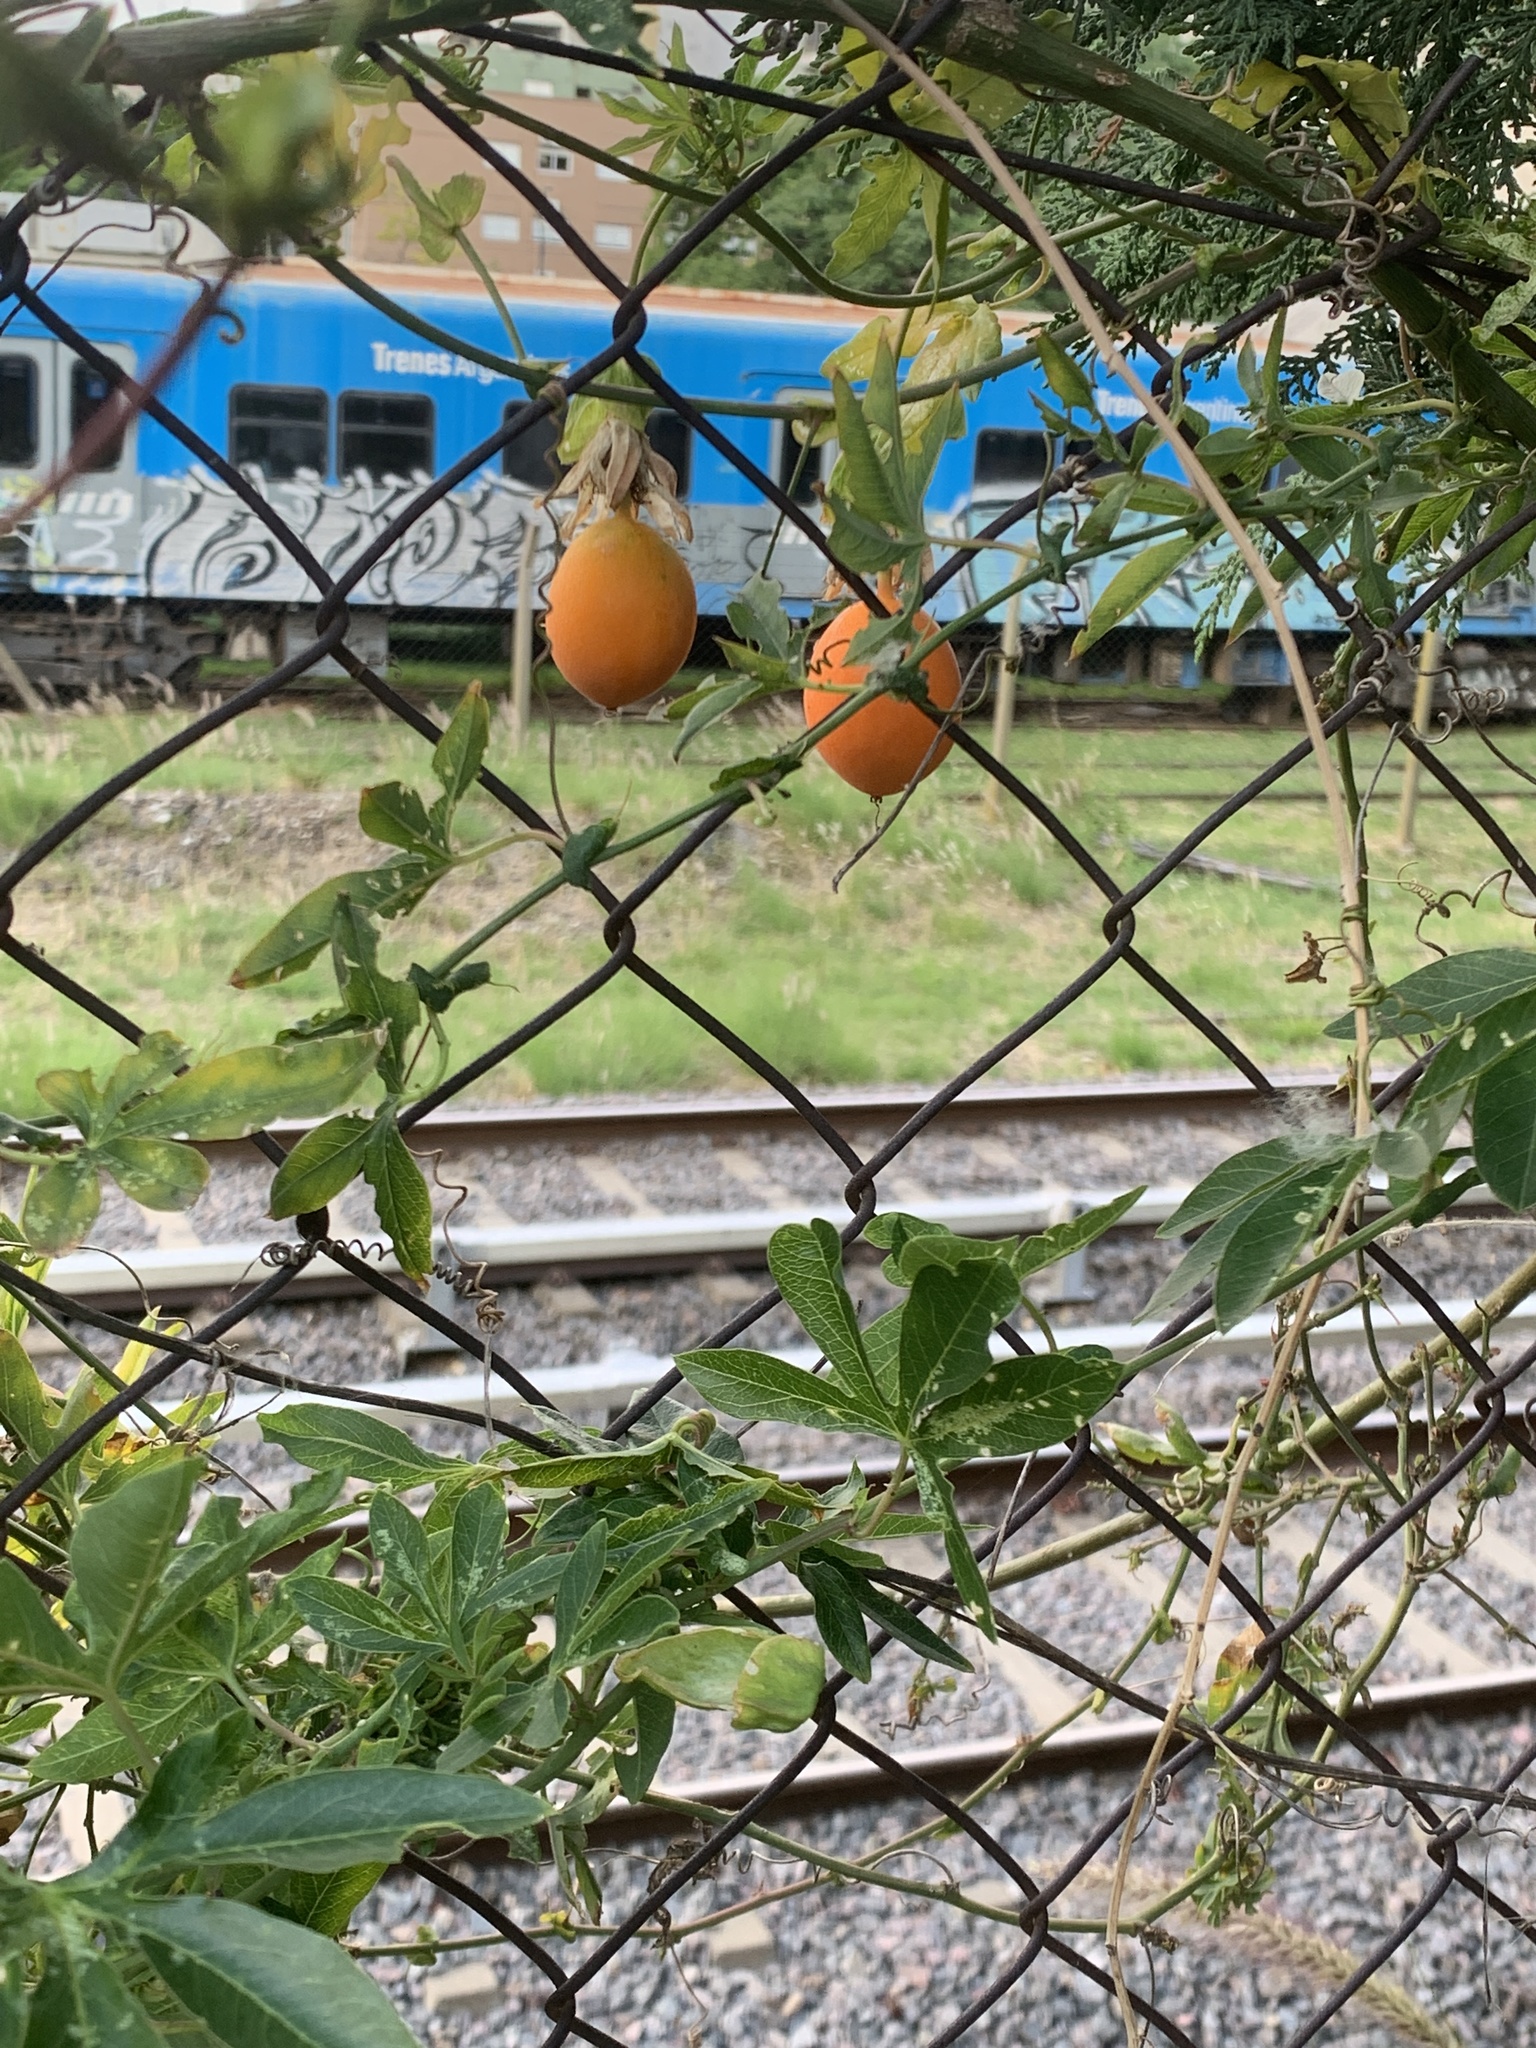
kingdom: Plantae
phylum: Tracheophyta
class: Magnoliopsida
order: Malpighiales
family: Passifloraceae
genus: Passiflora
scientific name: Passiflora caerulea
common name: Blue passionflower
